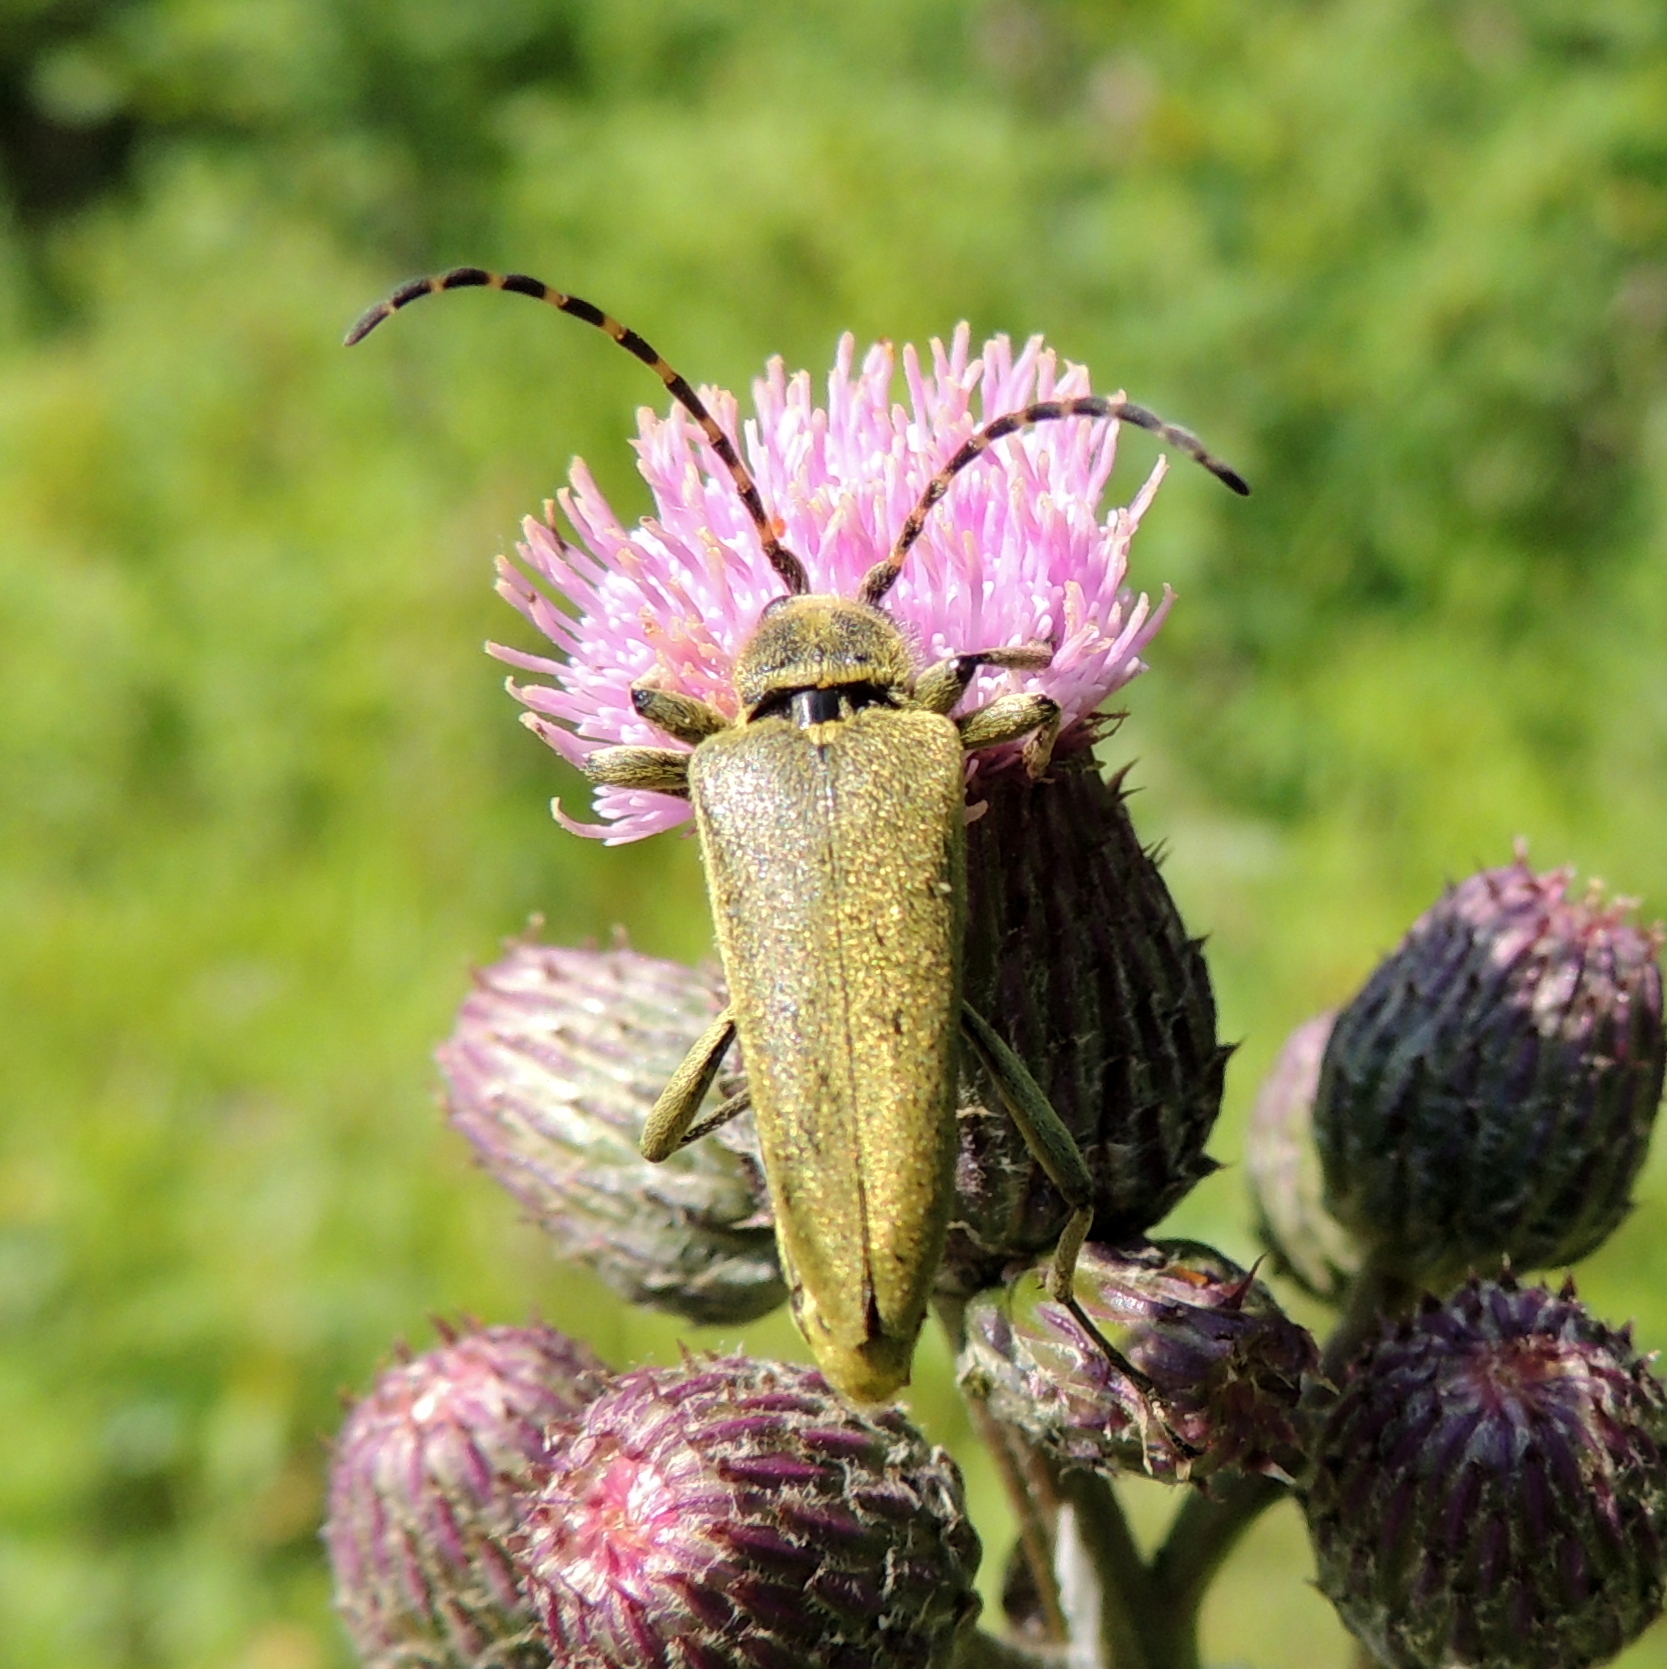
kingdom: Animalia
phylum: Arthropoda
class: Insecta
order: Coleoptera
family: Cerambycidae
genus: Lepturobosca
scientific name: Lepturobosca virens
